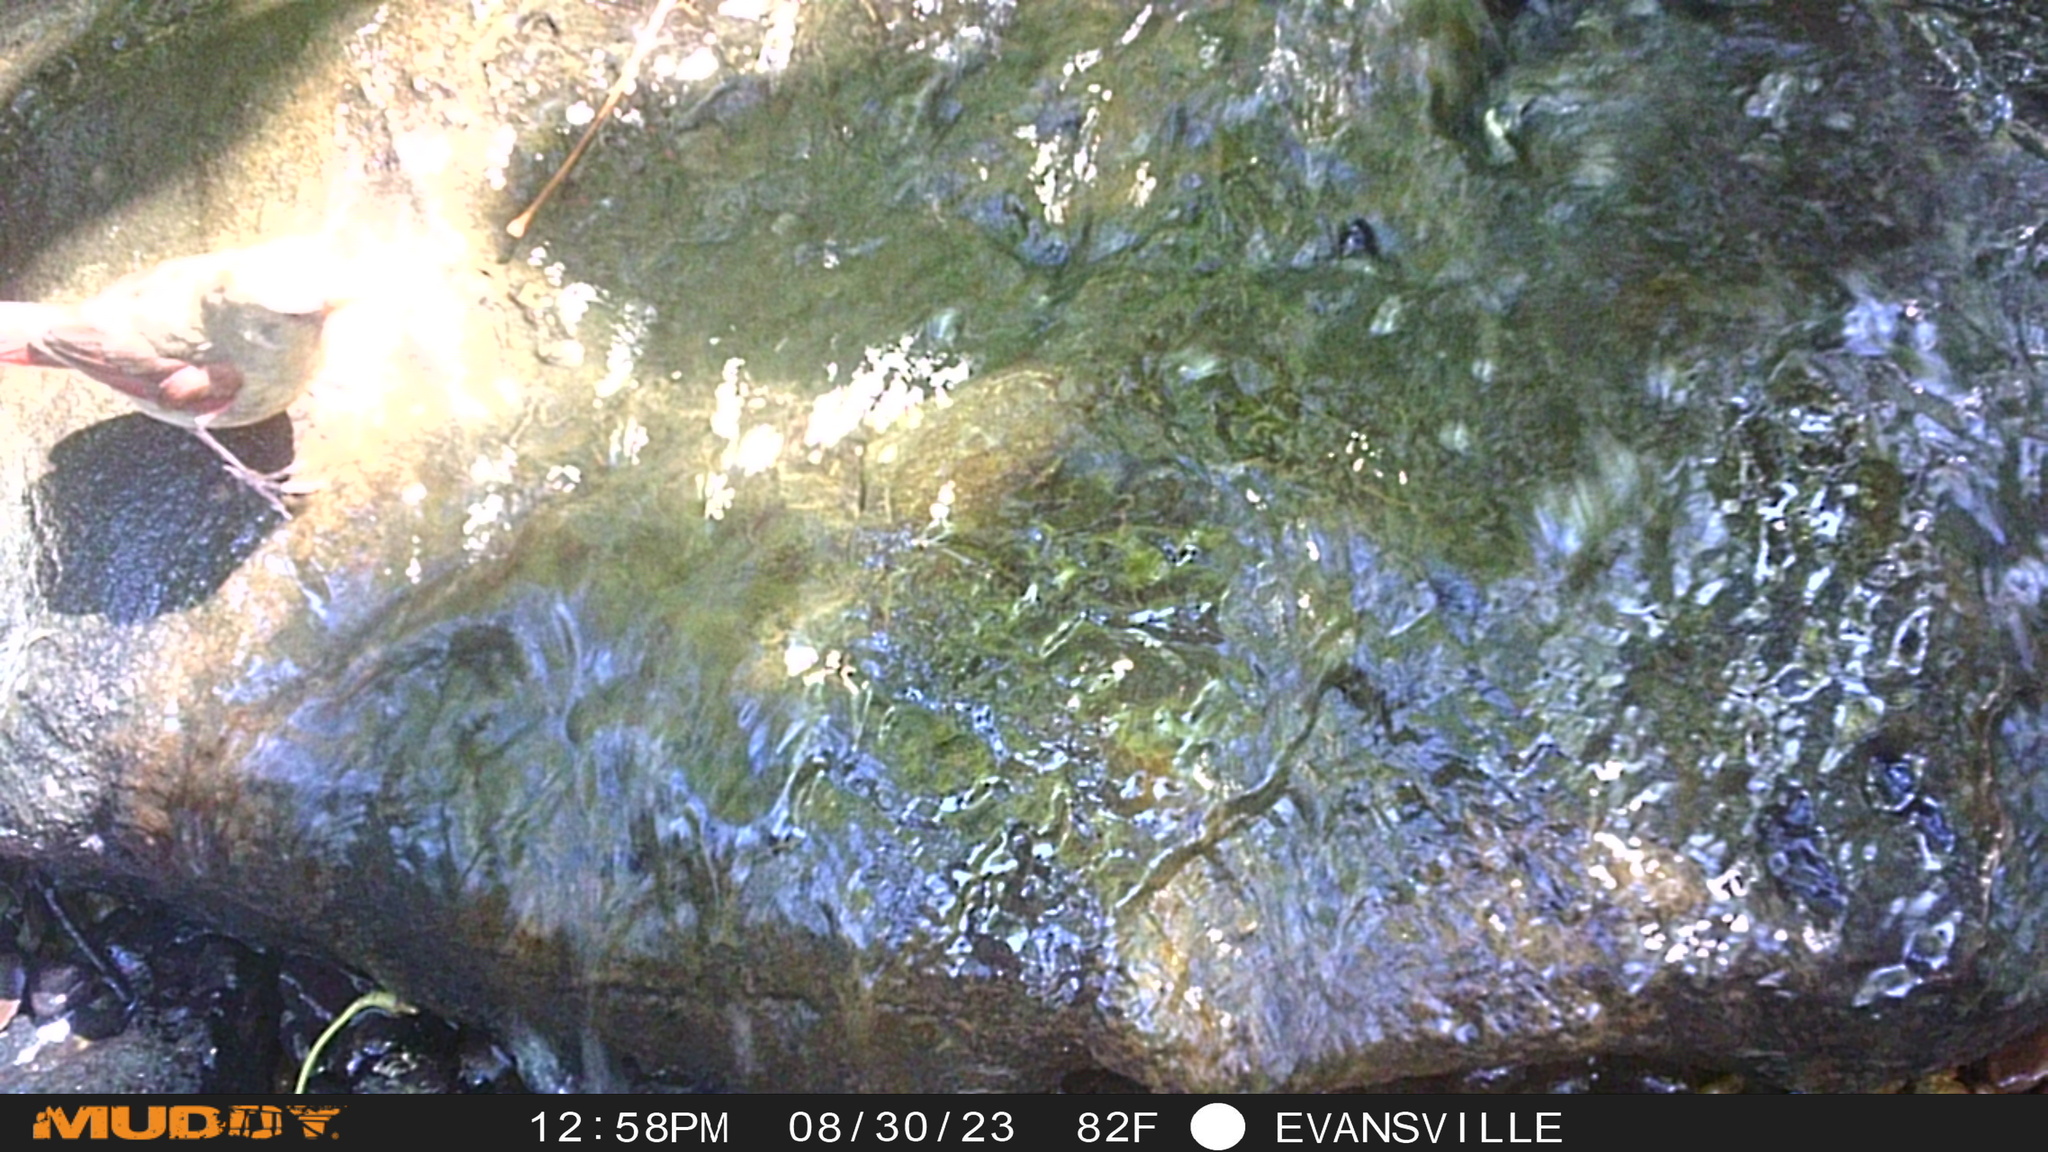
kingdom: Animalia
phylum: Chordata
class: Aves
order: Passeriformes
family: Cardinalidae
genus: Cardinalis
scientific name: Cardinalis cardinalis
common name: Northern cardinal
